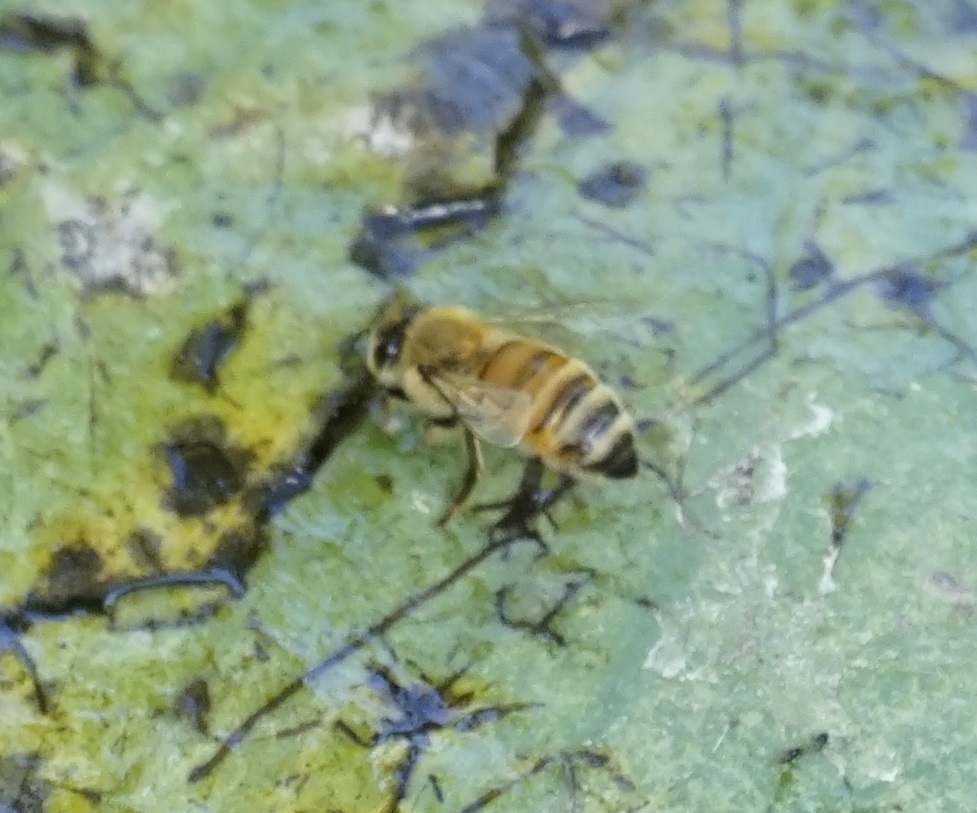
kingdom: Animalia
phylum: Arthropoda
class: Insecta
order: Hymenoptera
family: Apidae
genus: Apis
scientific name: Apis mellifera
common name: Honey bee
